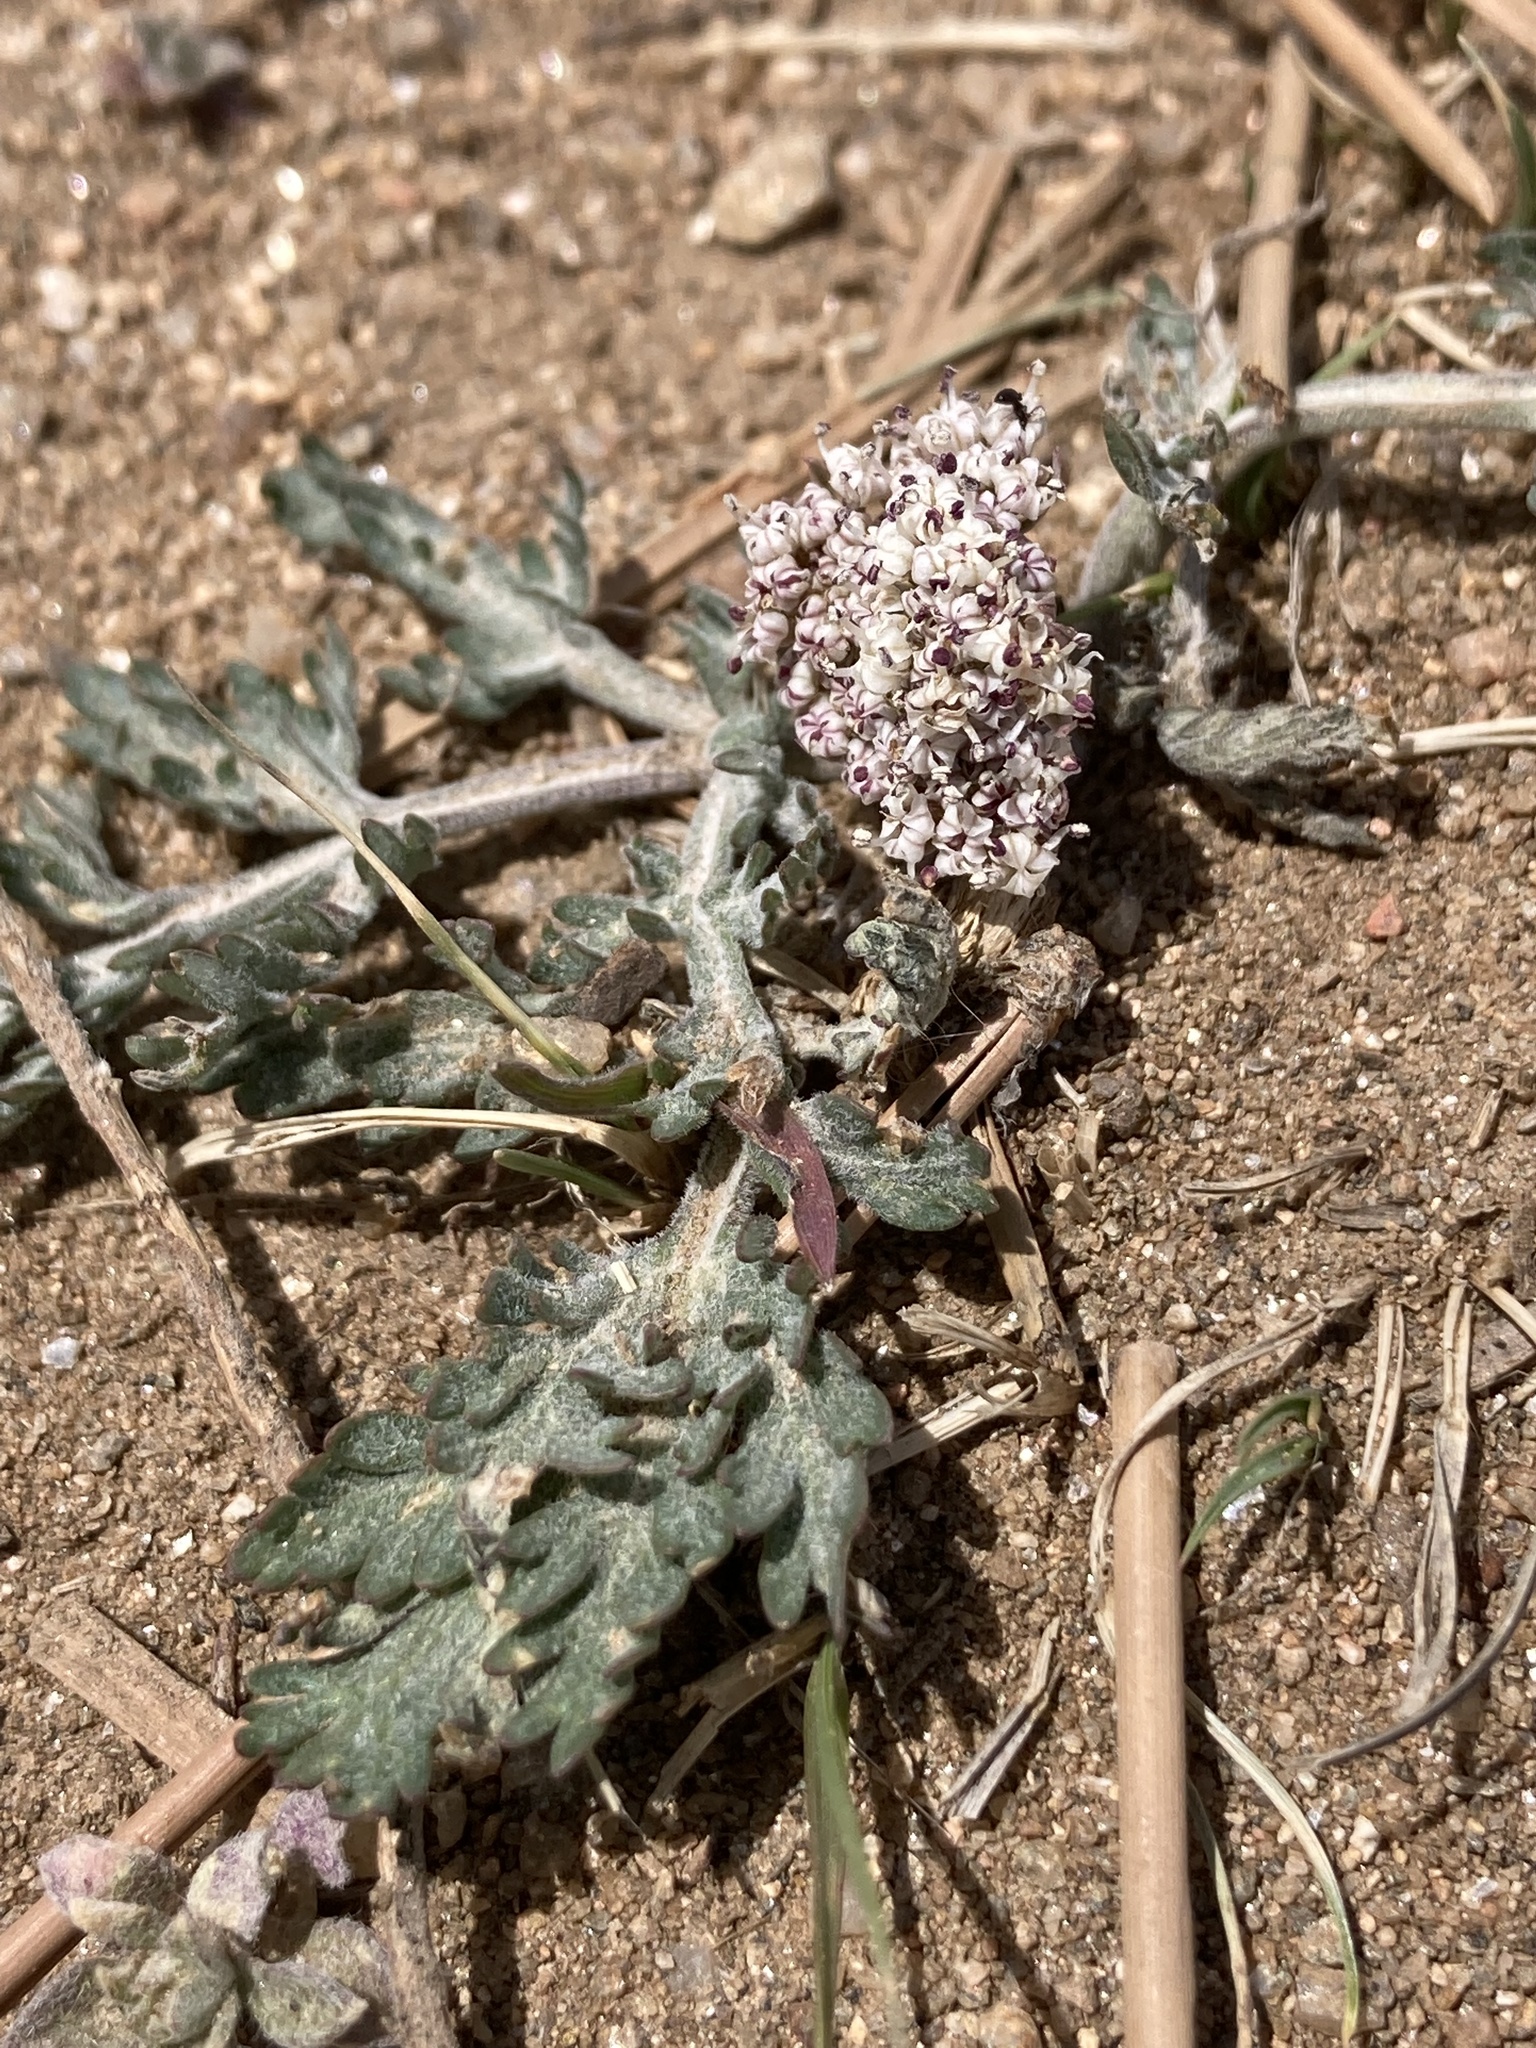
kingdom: Plantae
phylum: Tracheophyta
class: Magnoliopsida
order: Apiales
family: Apiaceae
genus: Lomatium
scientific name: Lomatium orientale
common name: Eastern cous
